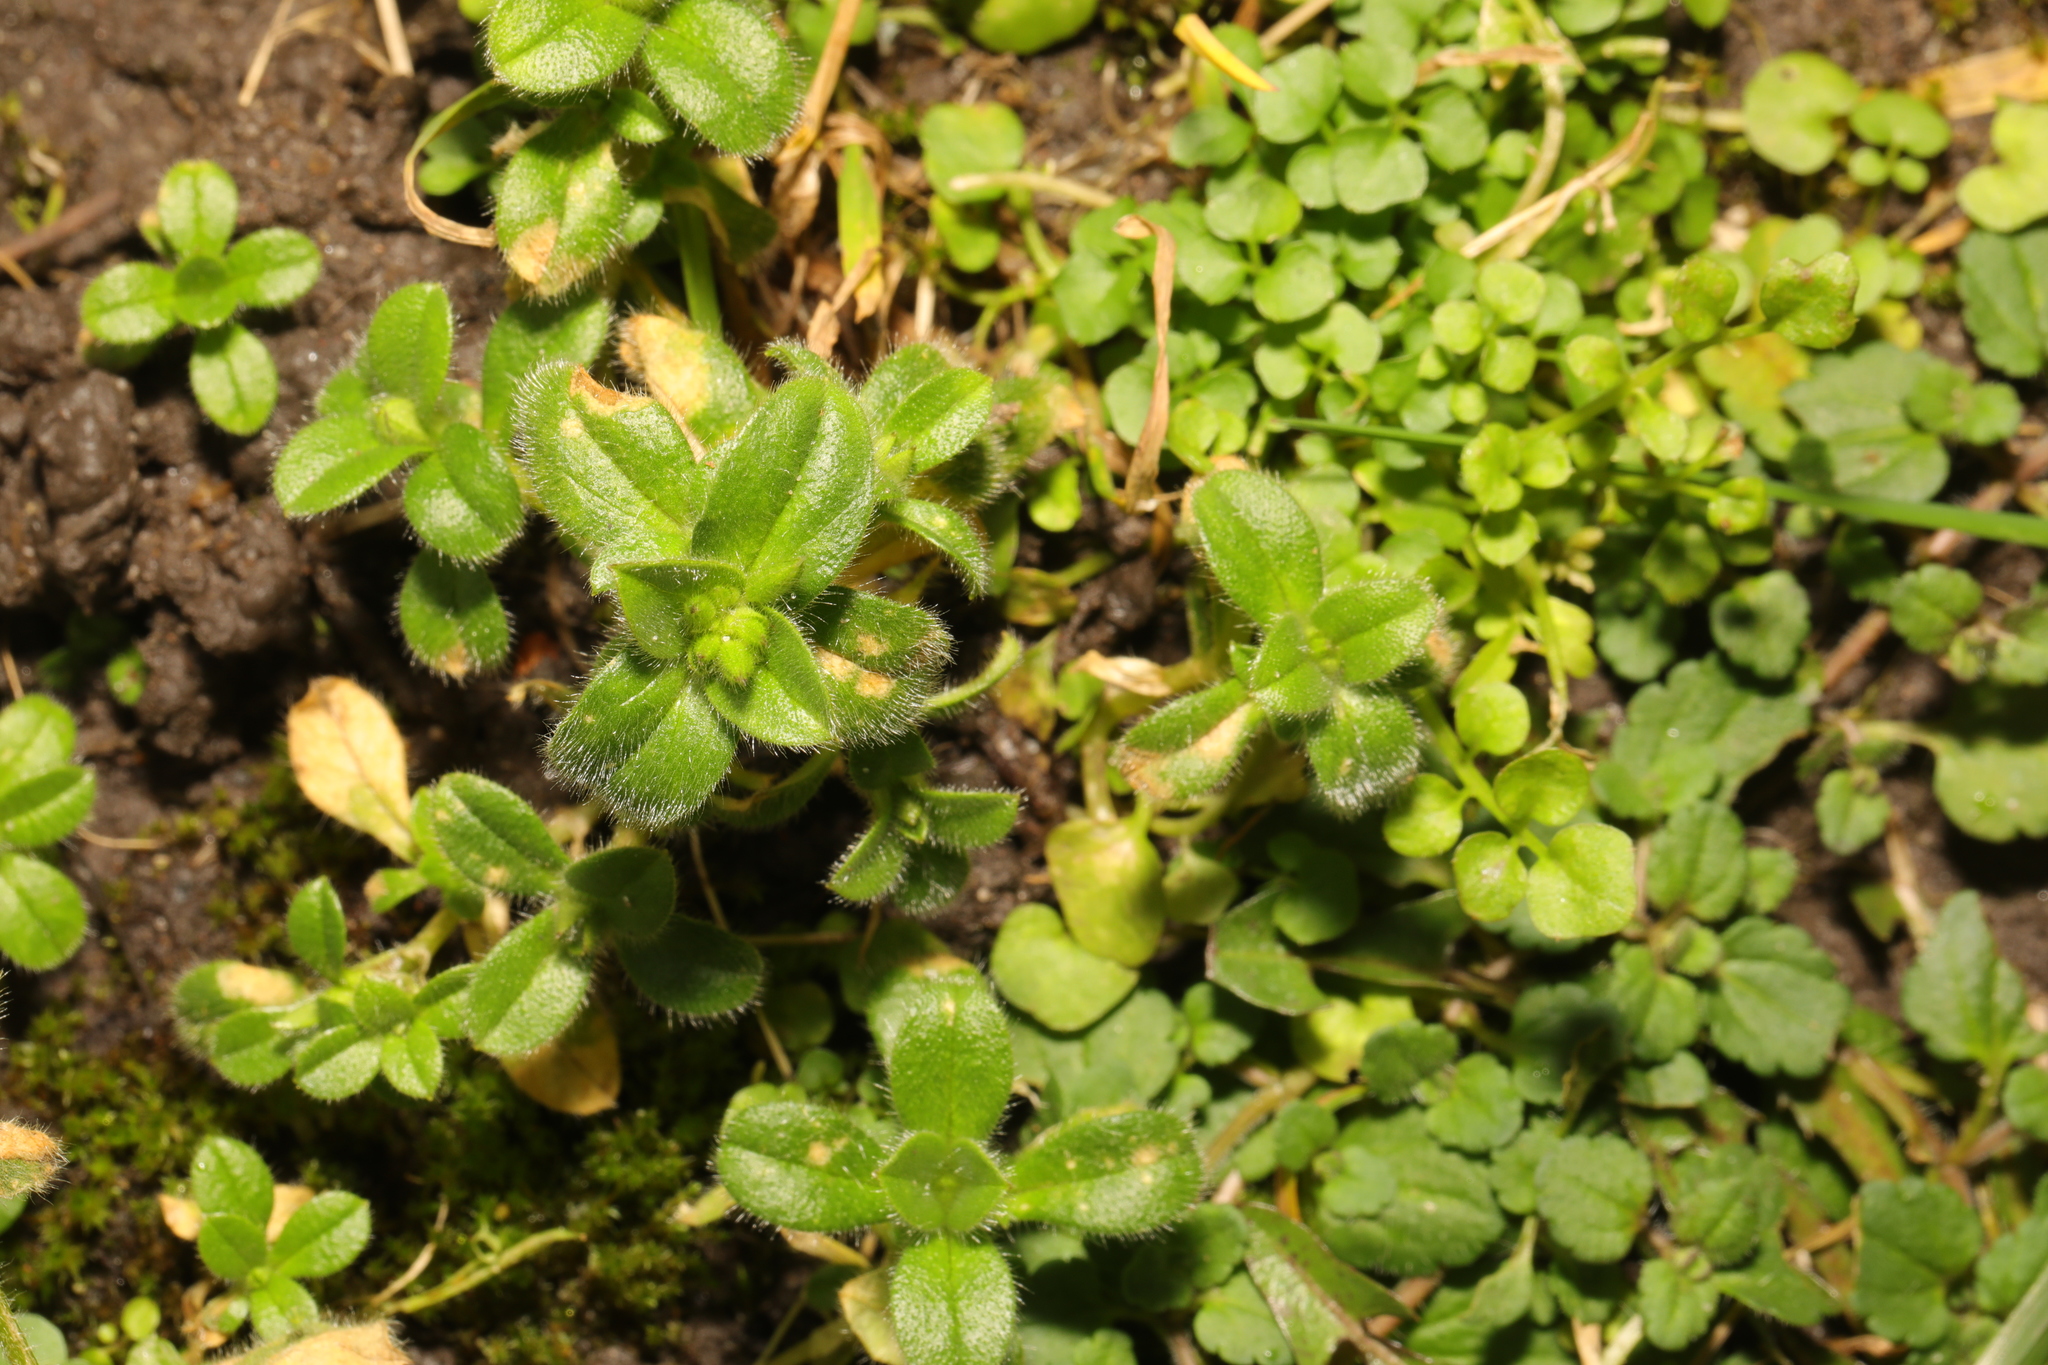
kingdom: Plantae
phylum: Tracheophyta
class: Magnoliopsida
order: Caryophyllales
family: Caryophyllaceae
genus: Cerastium
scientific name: Cerastium glomeratum
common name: Sticky chickweed
